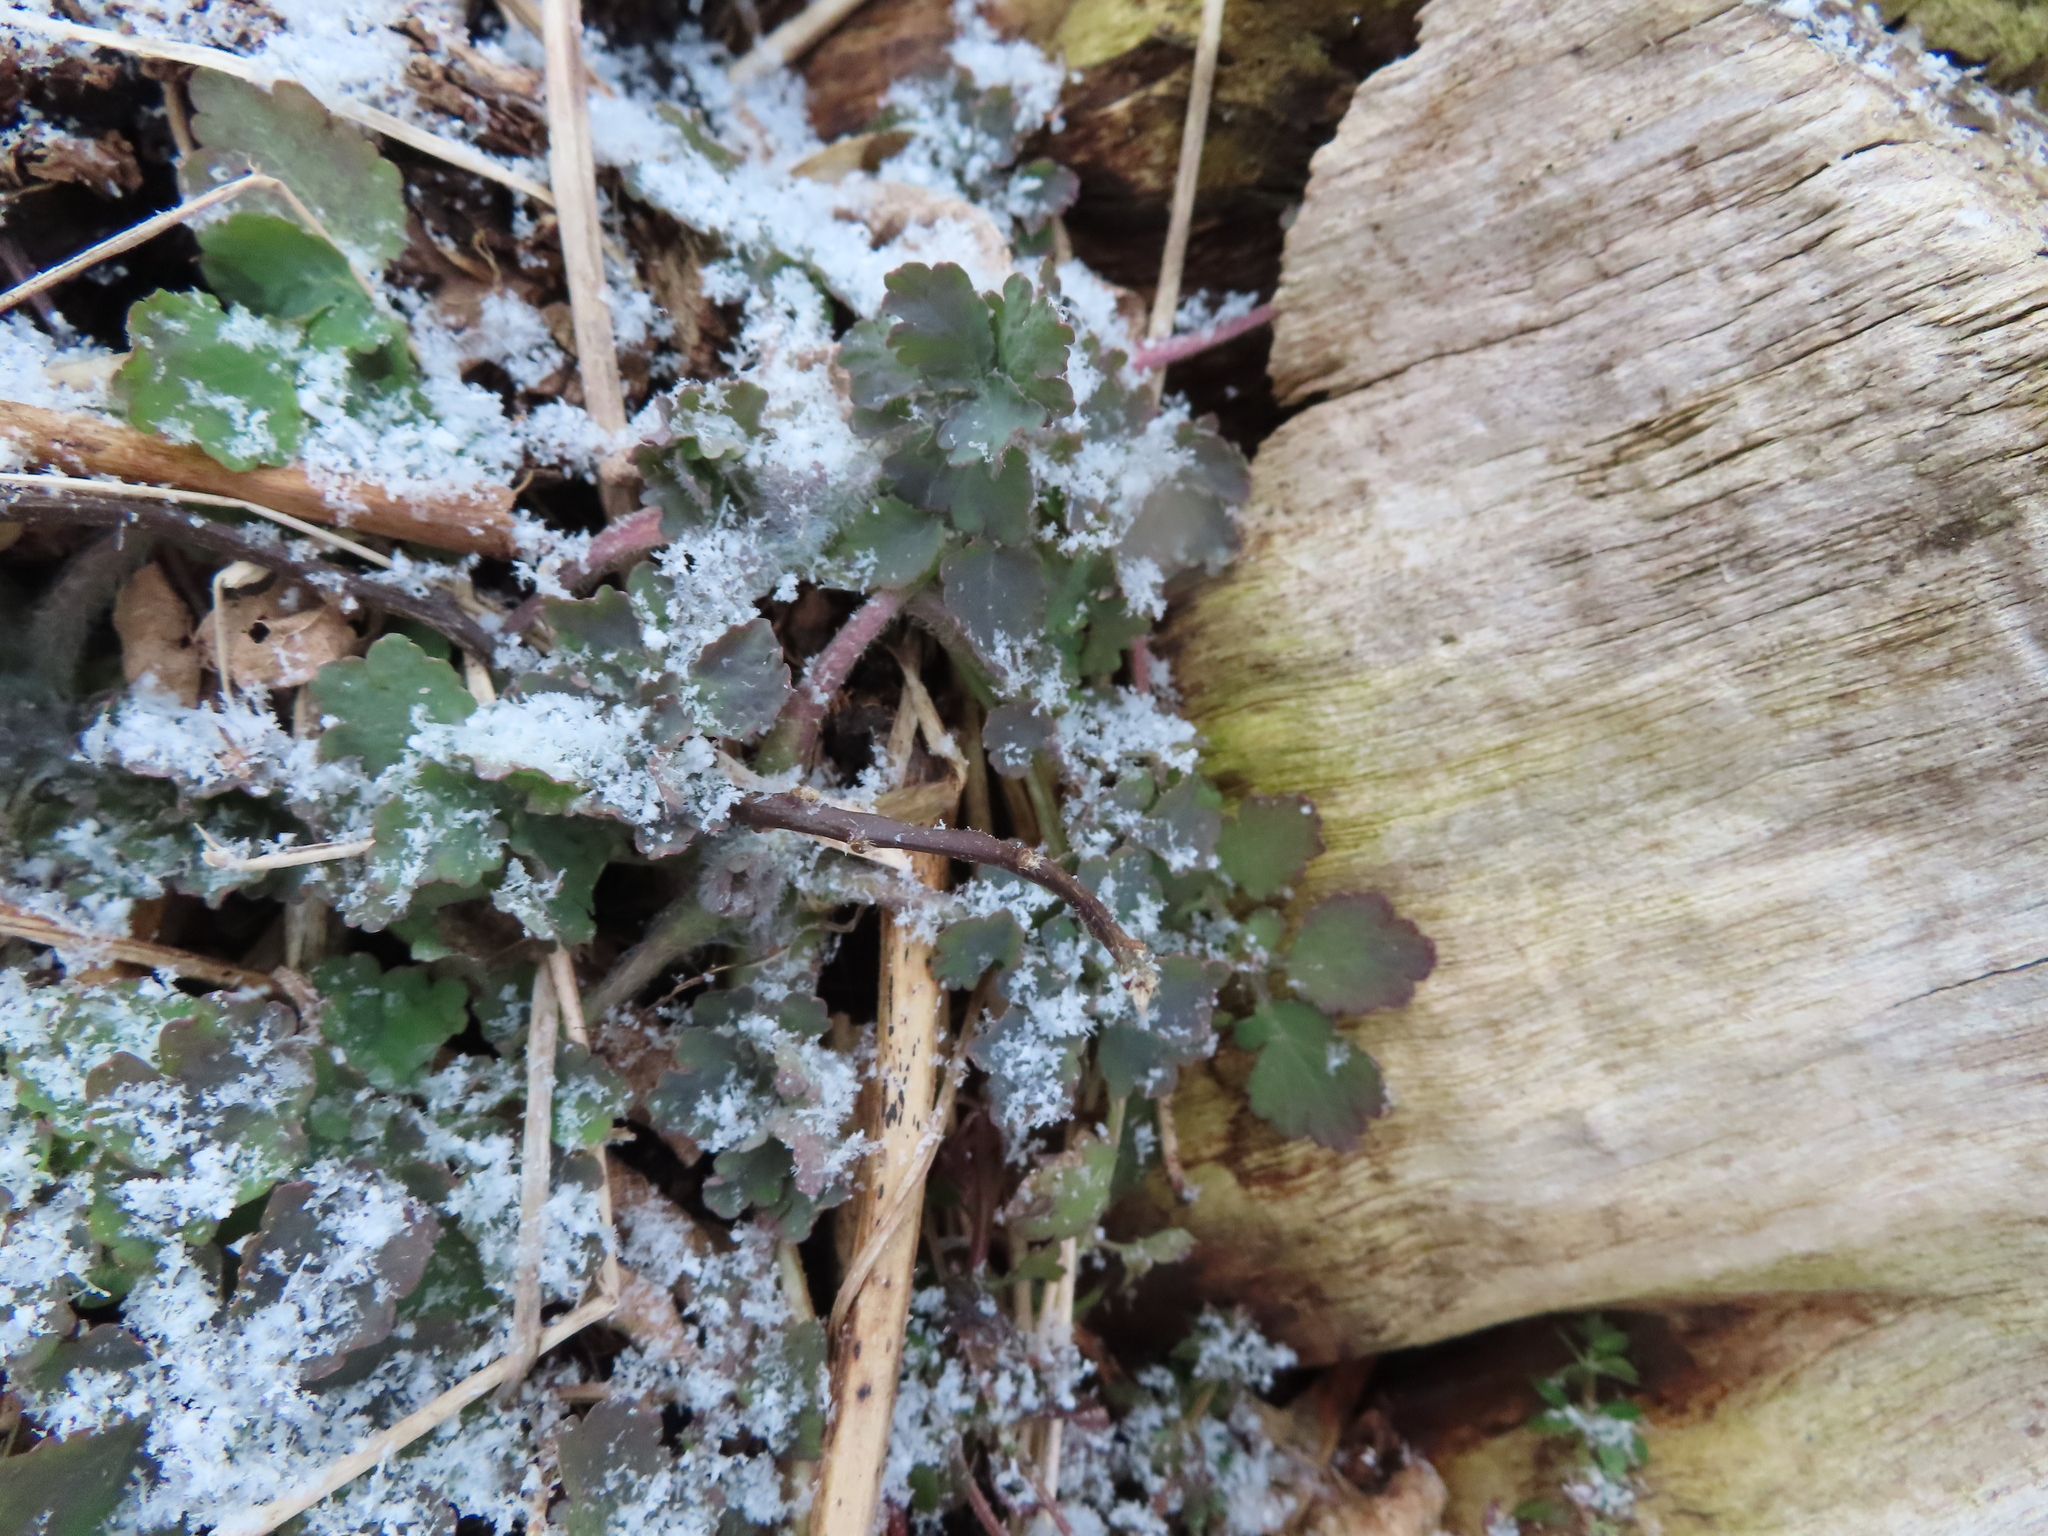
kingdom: Plantae
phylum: Tracheophyta
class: Magnoliopsida
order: Ranunculales
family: Papaveraceae
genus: Chelidonium
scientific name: Chelidonium majus
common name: Greater celandine
